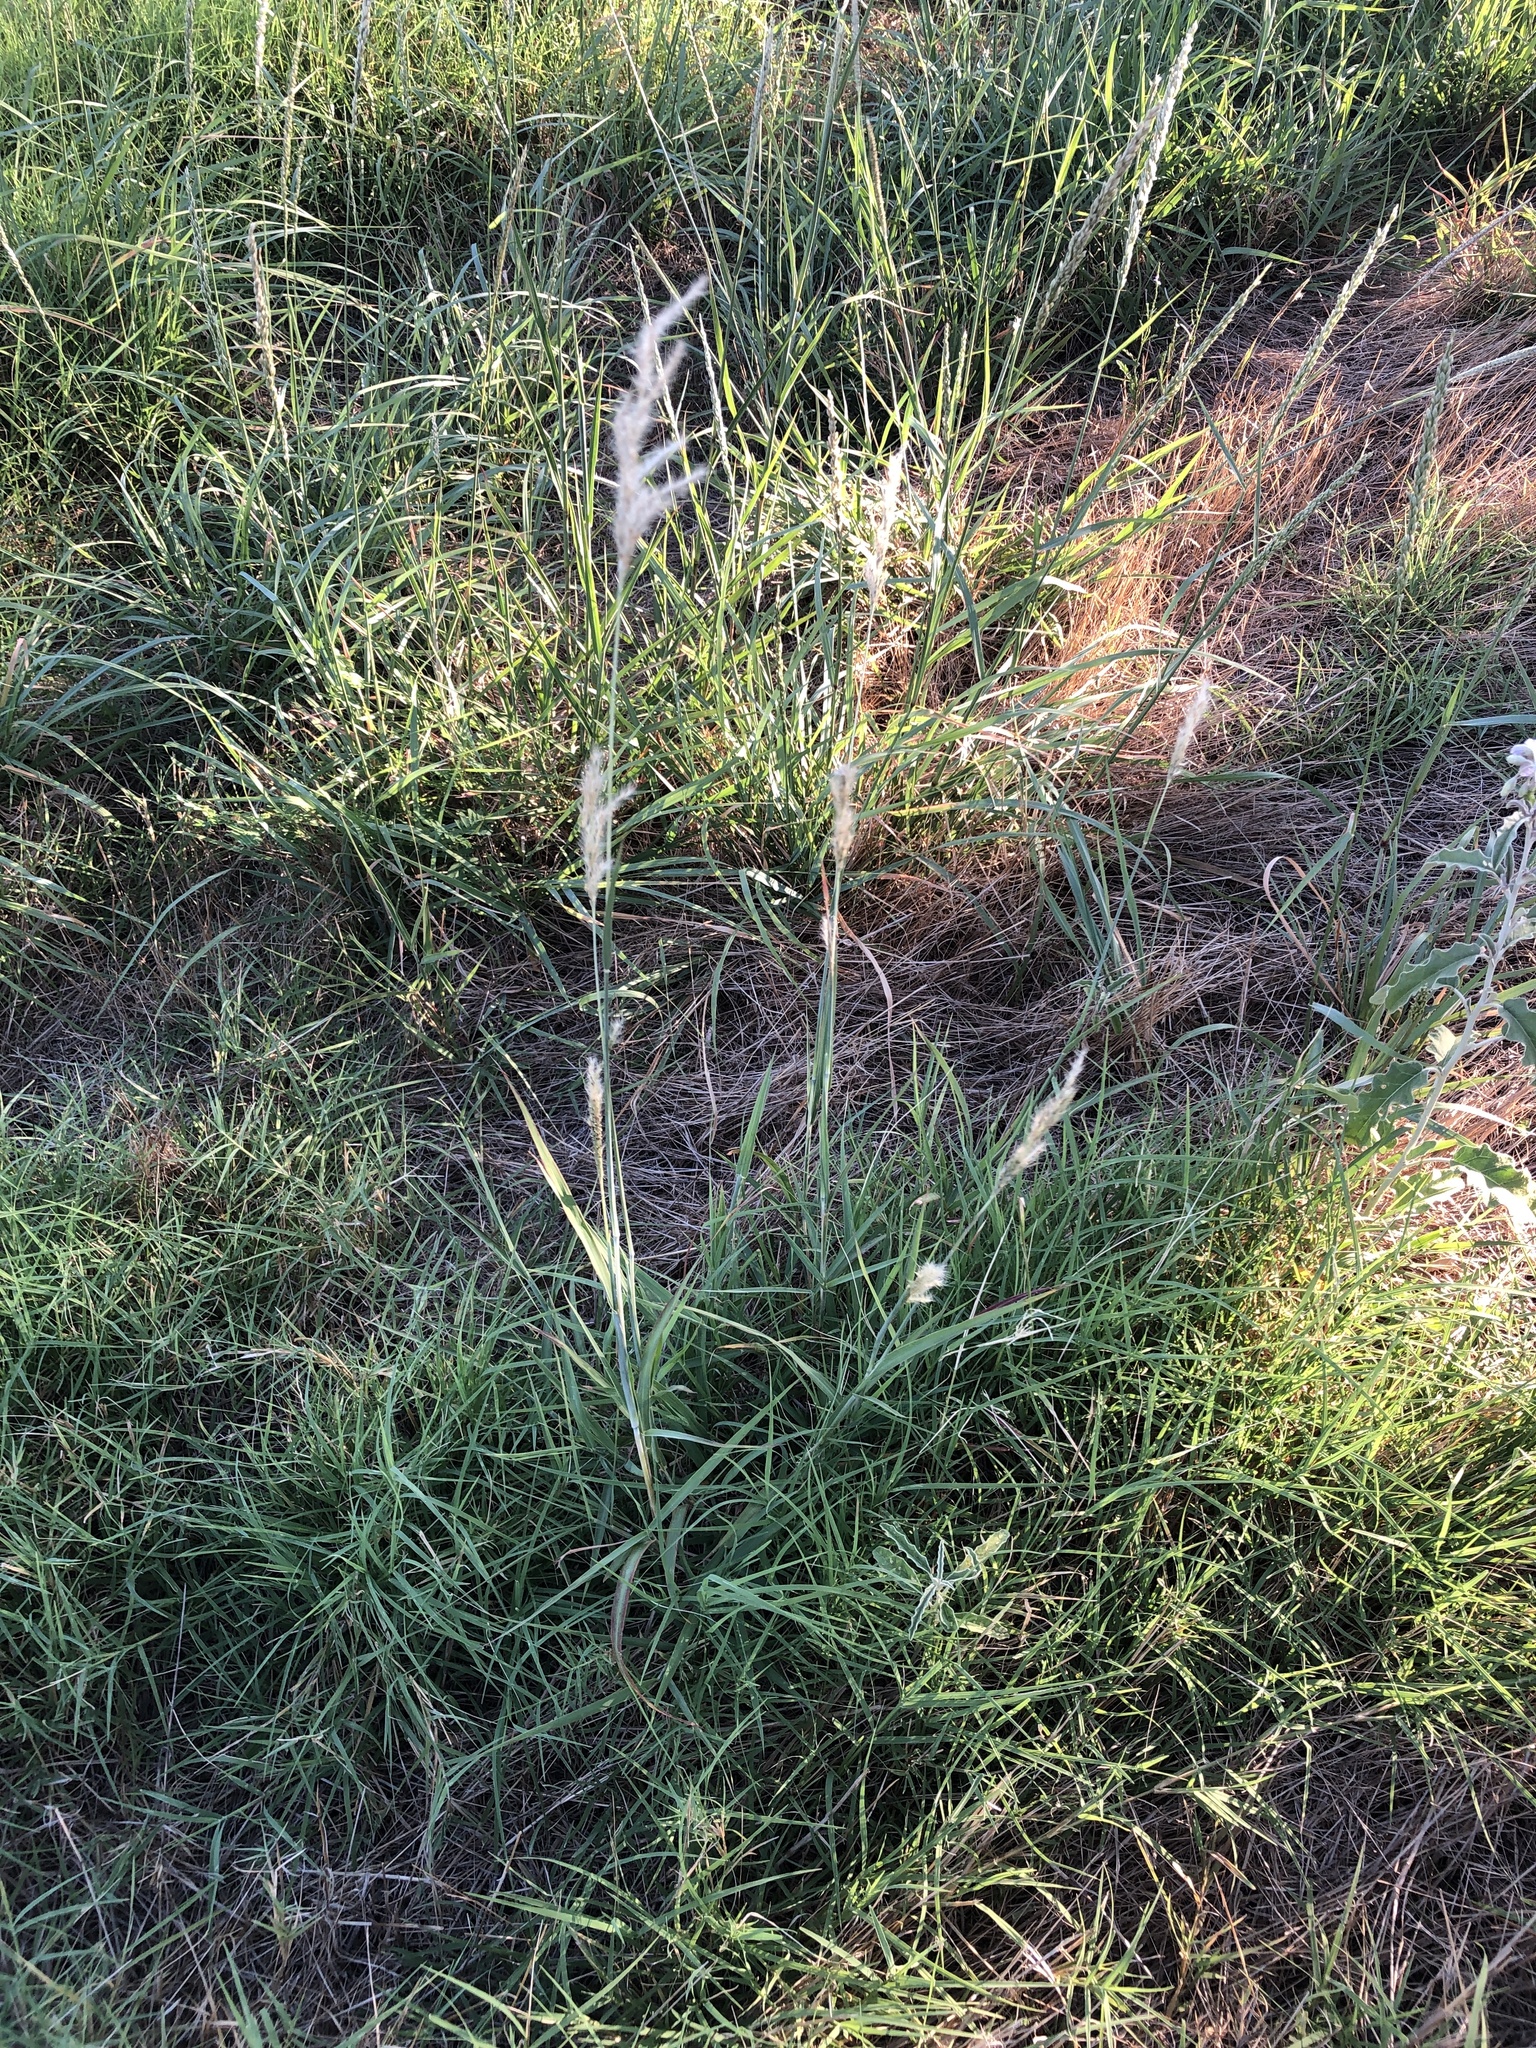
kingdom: Plantae
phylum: Tracheophyta
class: Liliopsida
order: Poales
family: Poaceae
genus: Bothriochloa
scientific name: Bothriochloa torreyana
